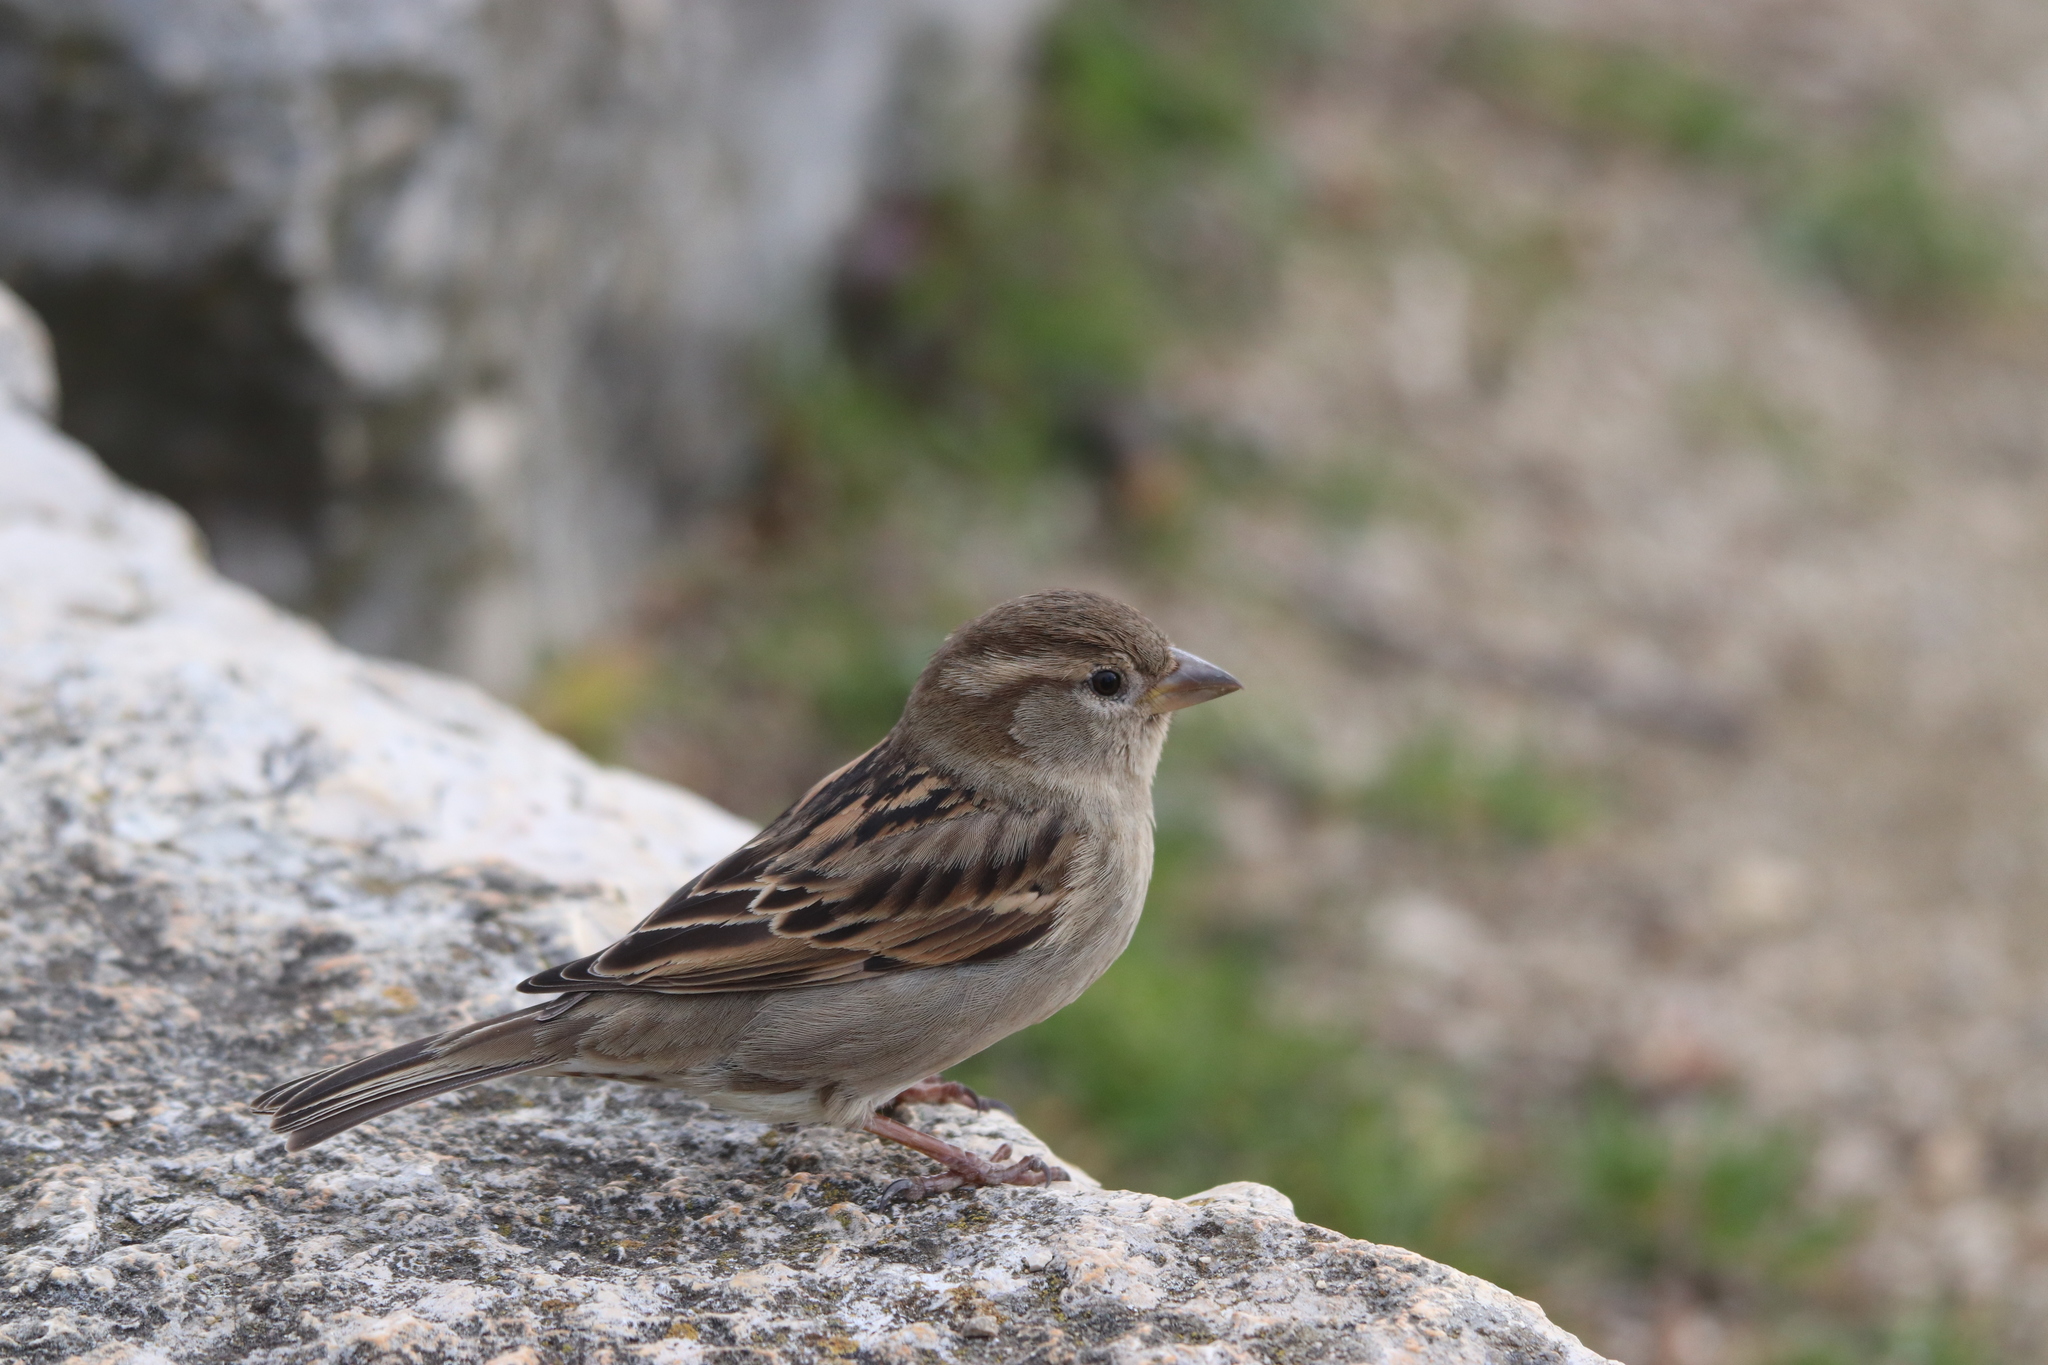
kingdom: Animalia
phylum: Chordata
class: Aves
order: Passeriformes
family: Passeridae
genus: Passer
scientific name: Passer domesticus
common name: House sparrow
